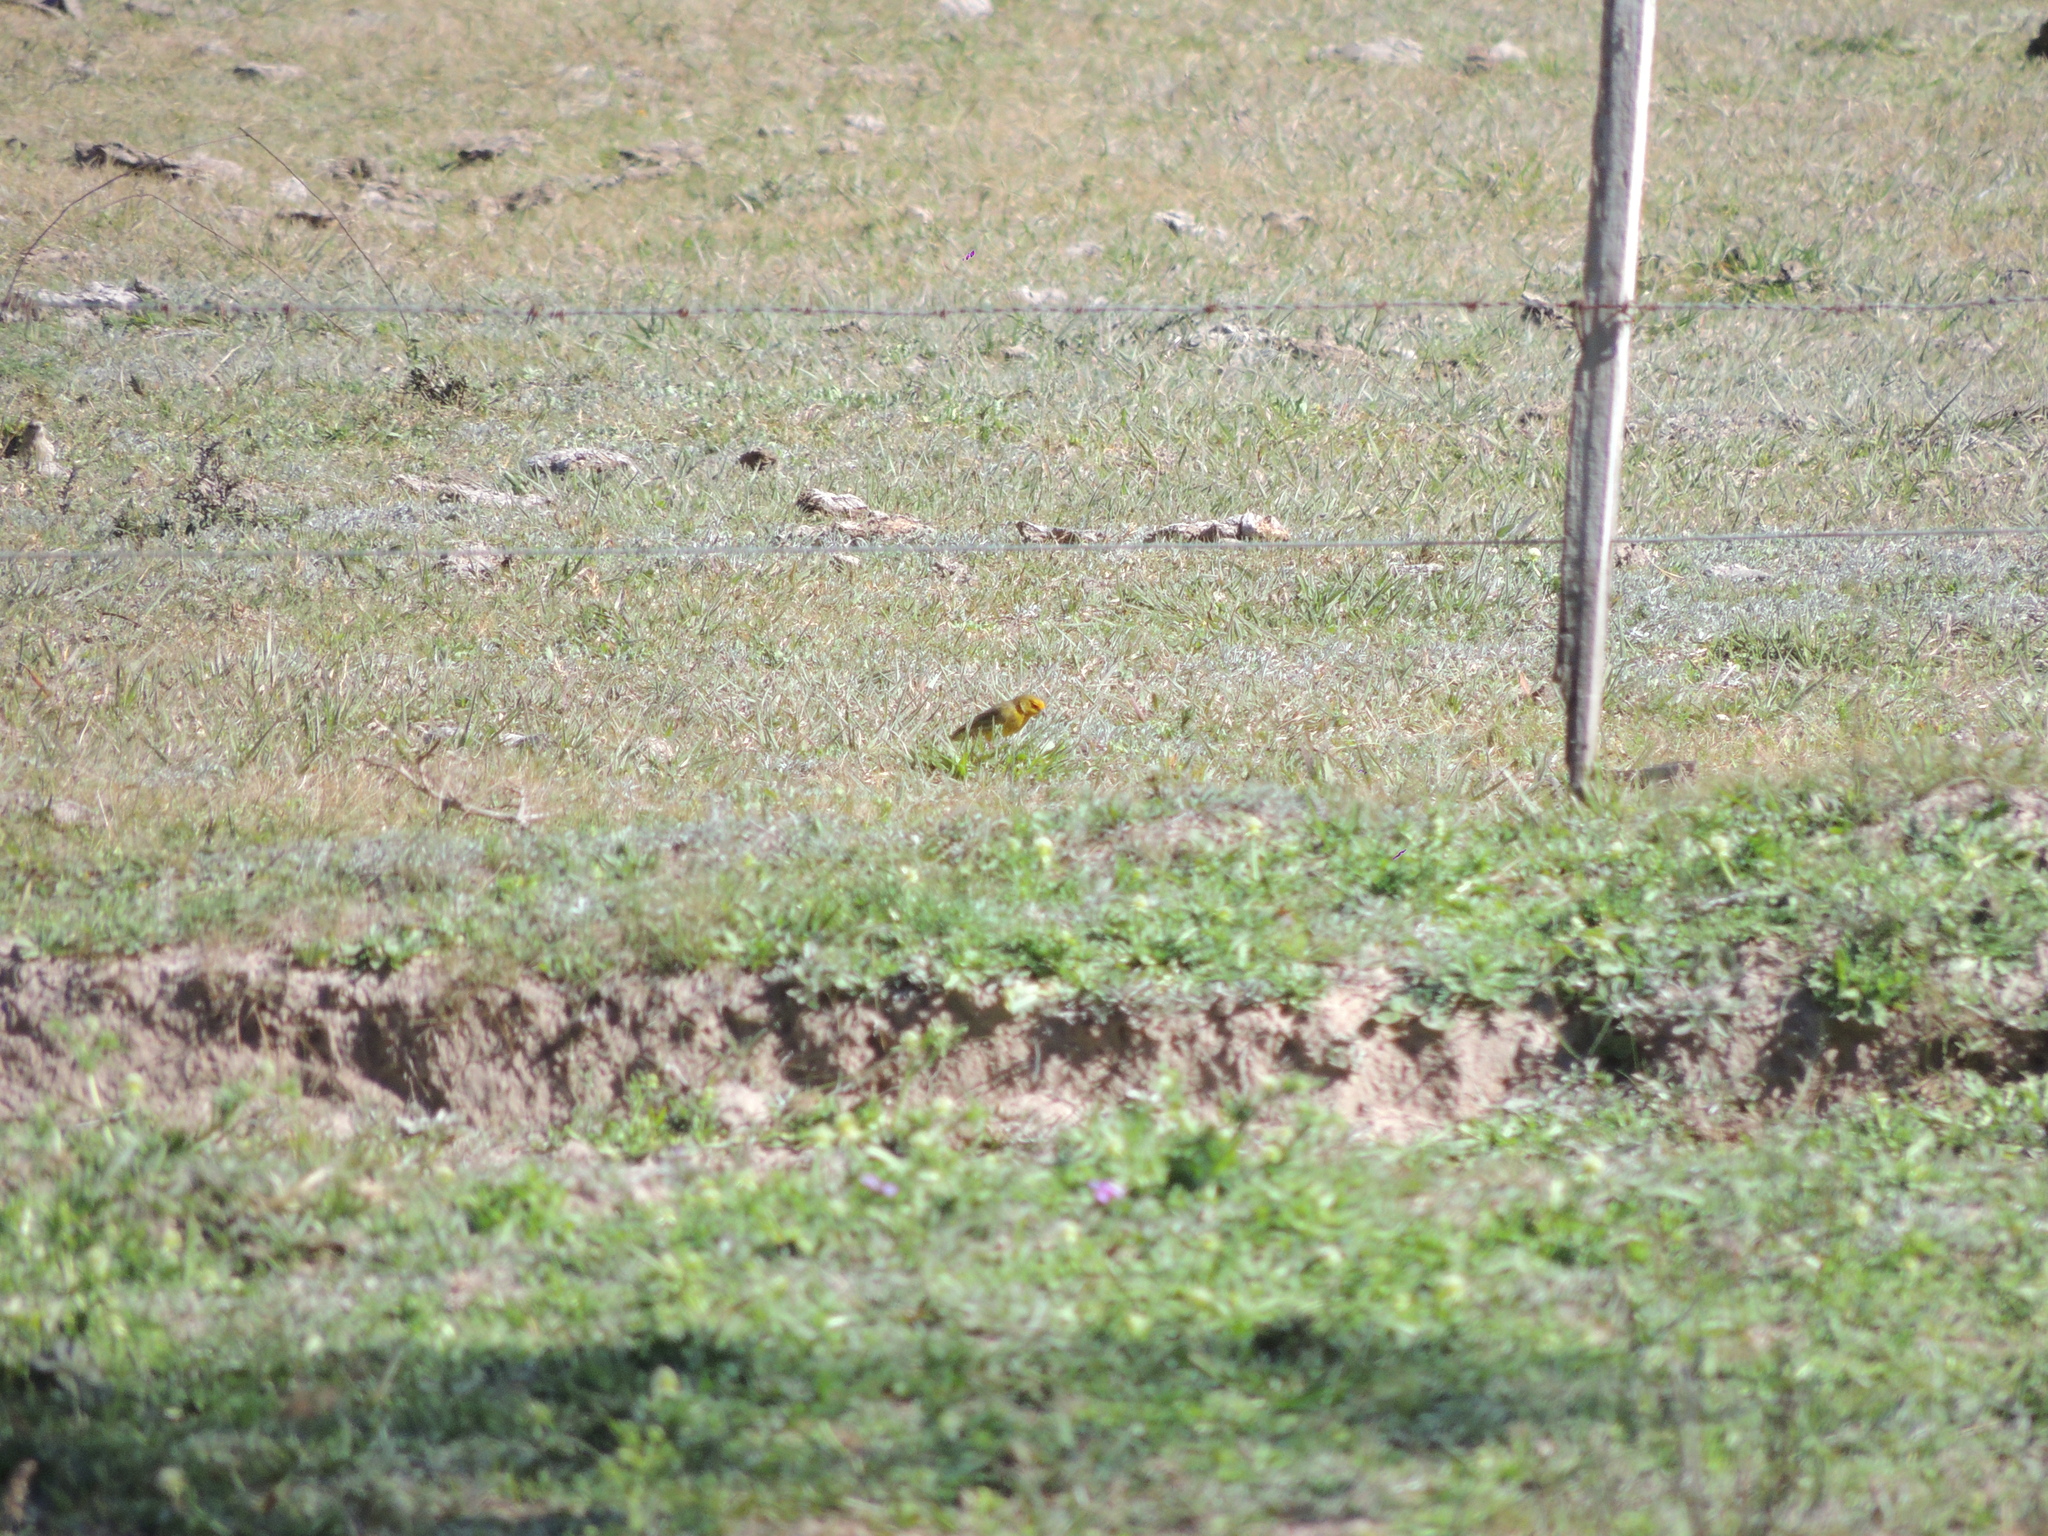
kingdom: Animalia
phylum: Chordata
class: Aves
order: Passeriformes
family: Thraupidae
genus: Sicalis
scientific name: Sicalis flaveola
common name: Saffron finch
